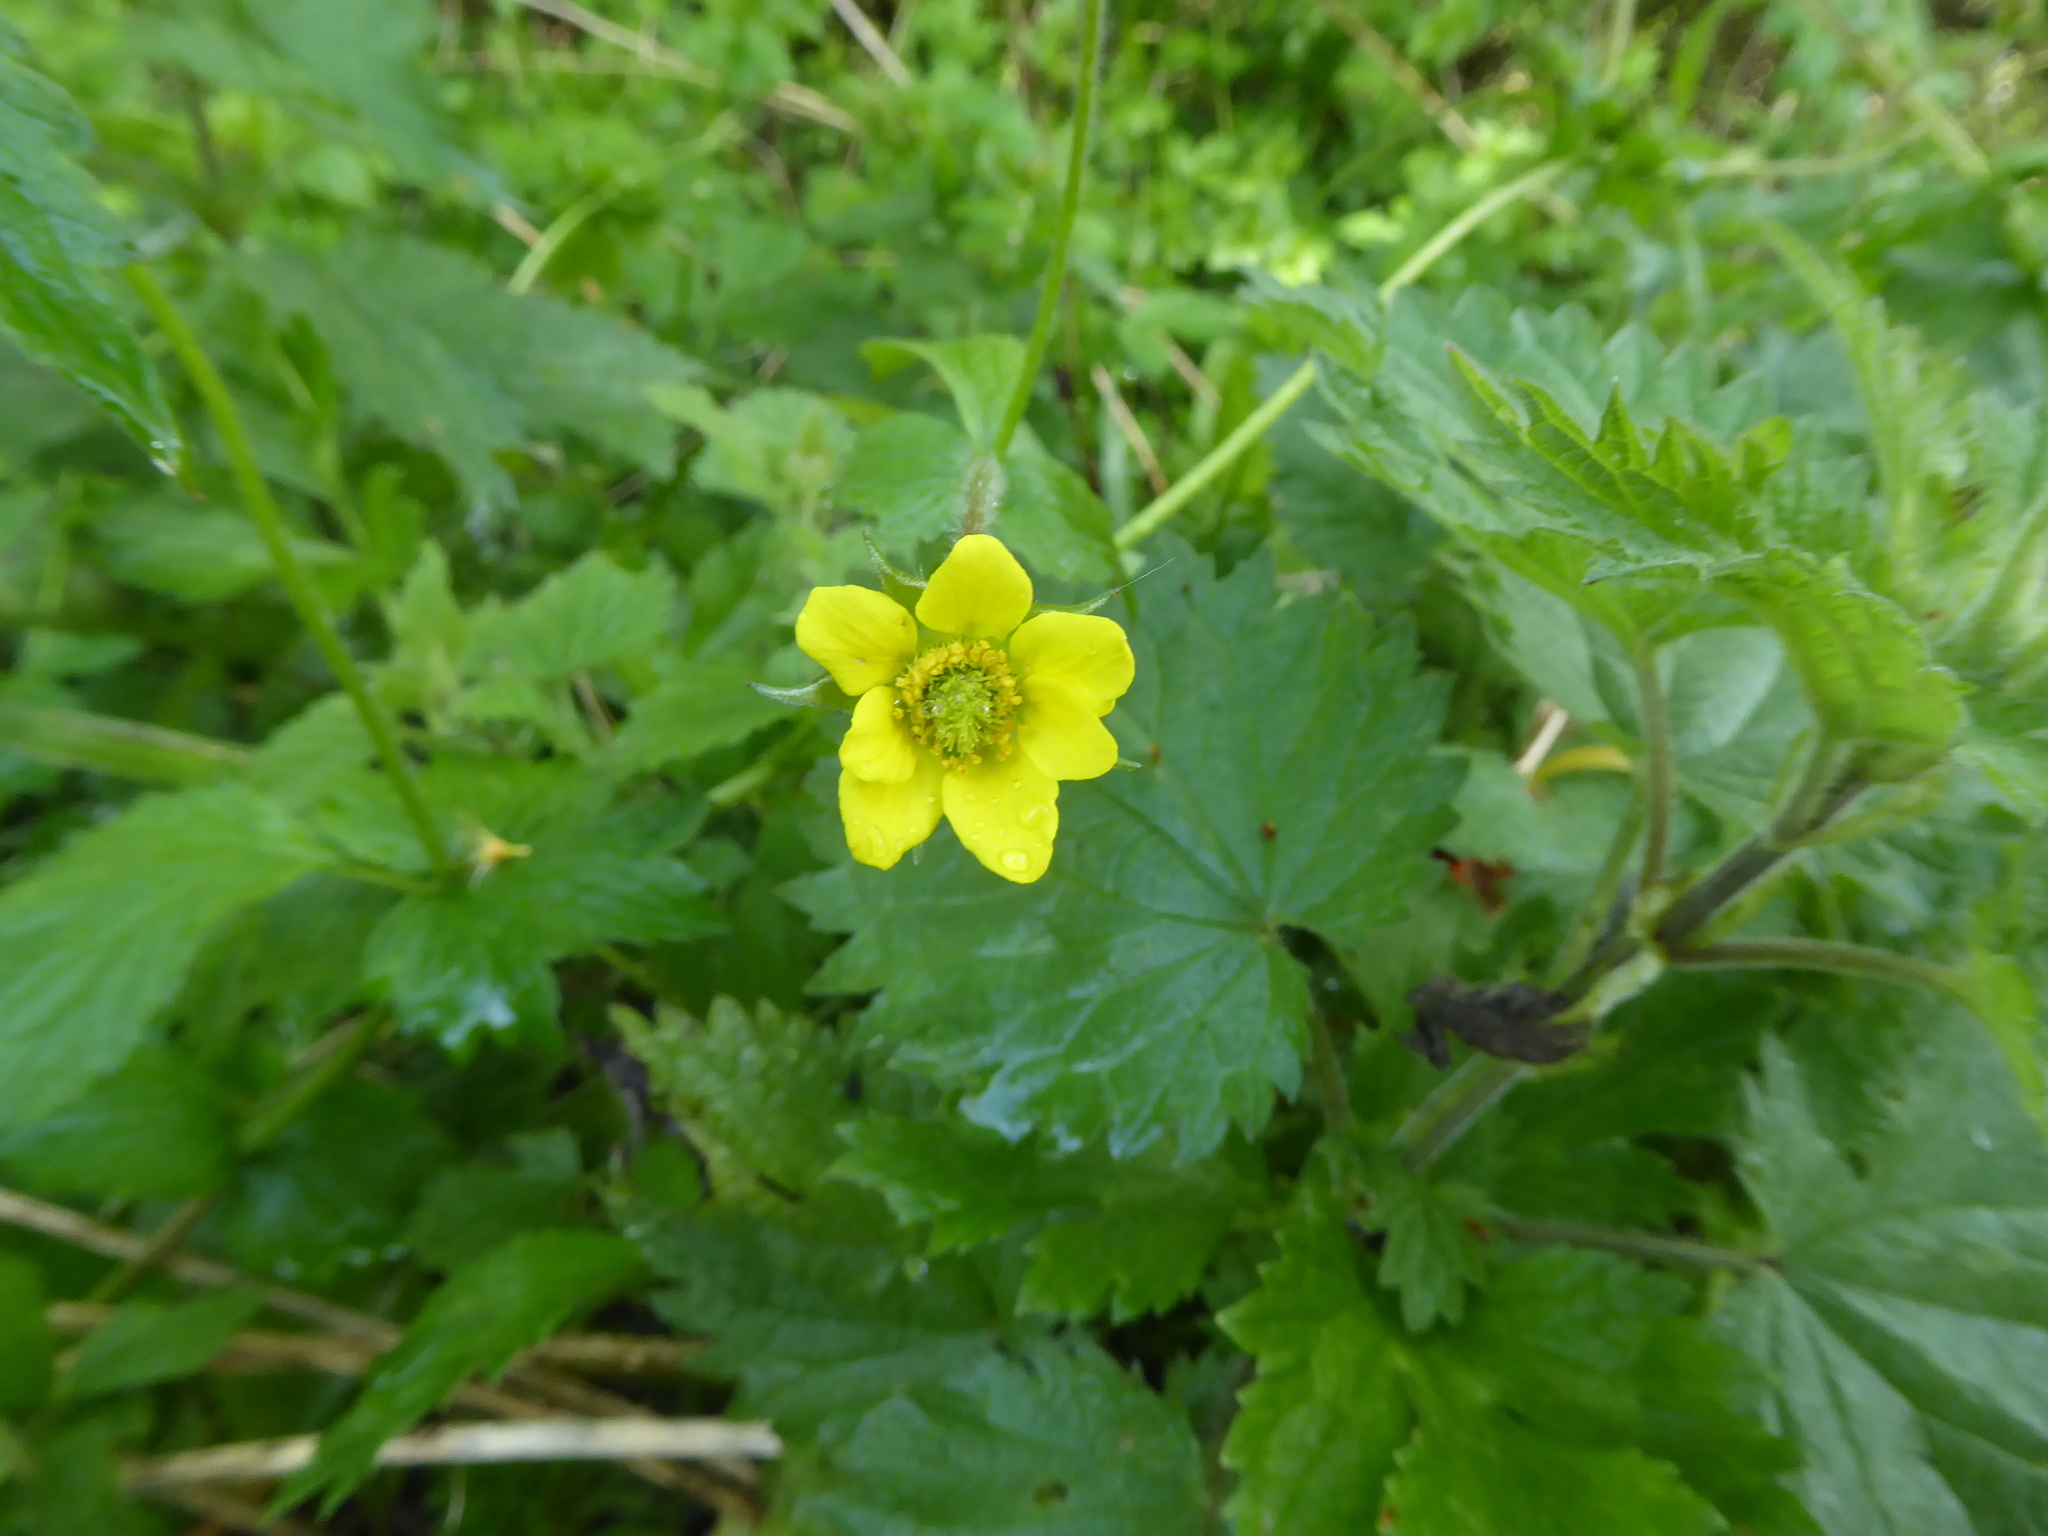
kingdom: Plantae
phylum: Tracheophyta
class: Magnoliopsida
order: Rosales
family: Rosaceae
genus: Geum
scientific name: Geum urbanum
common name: Wood avens
